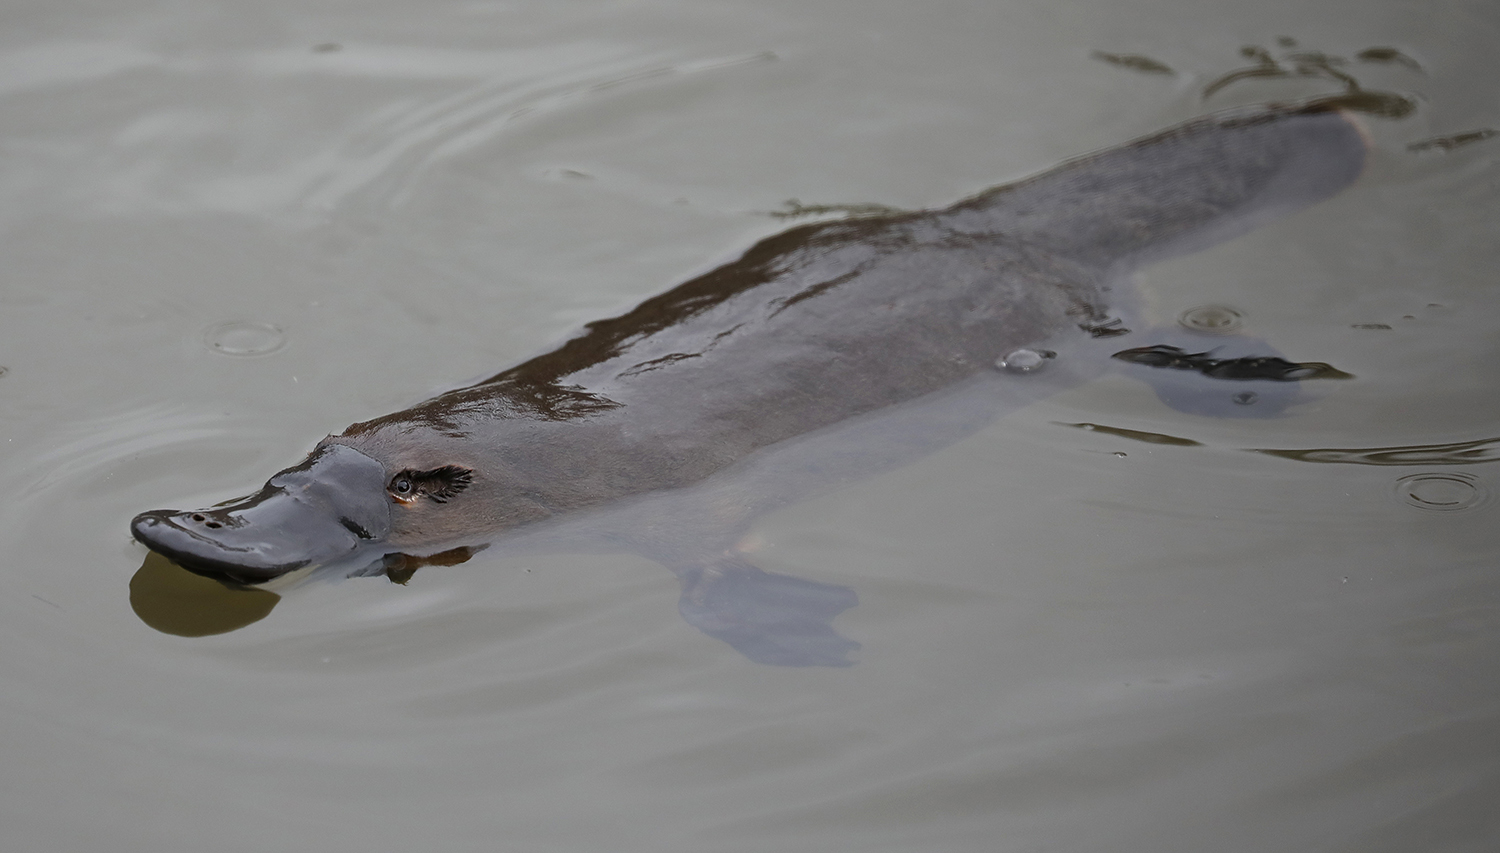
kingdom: Animalia
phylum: Chordata
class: Mammalia
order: Monotremata
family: Ornithorhynchidae
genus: Ornithorhynchus
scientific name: Ornithorhynchus anatinus
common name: Platypus
